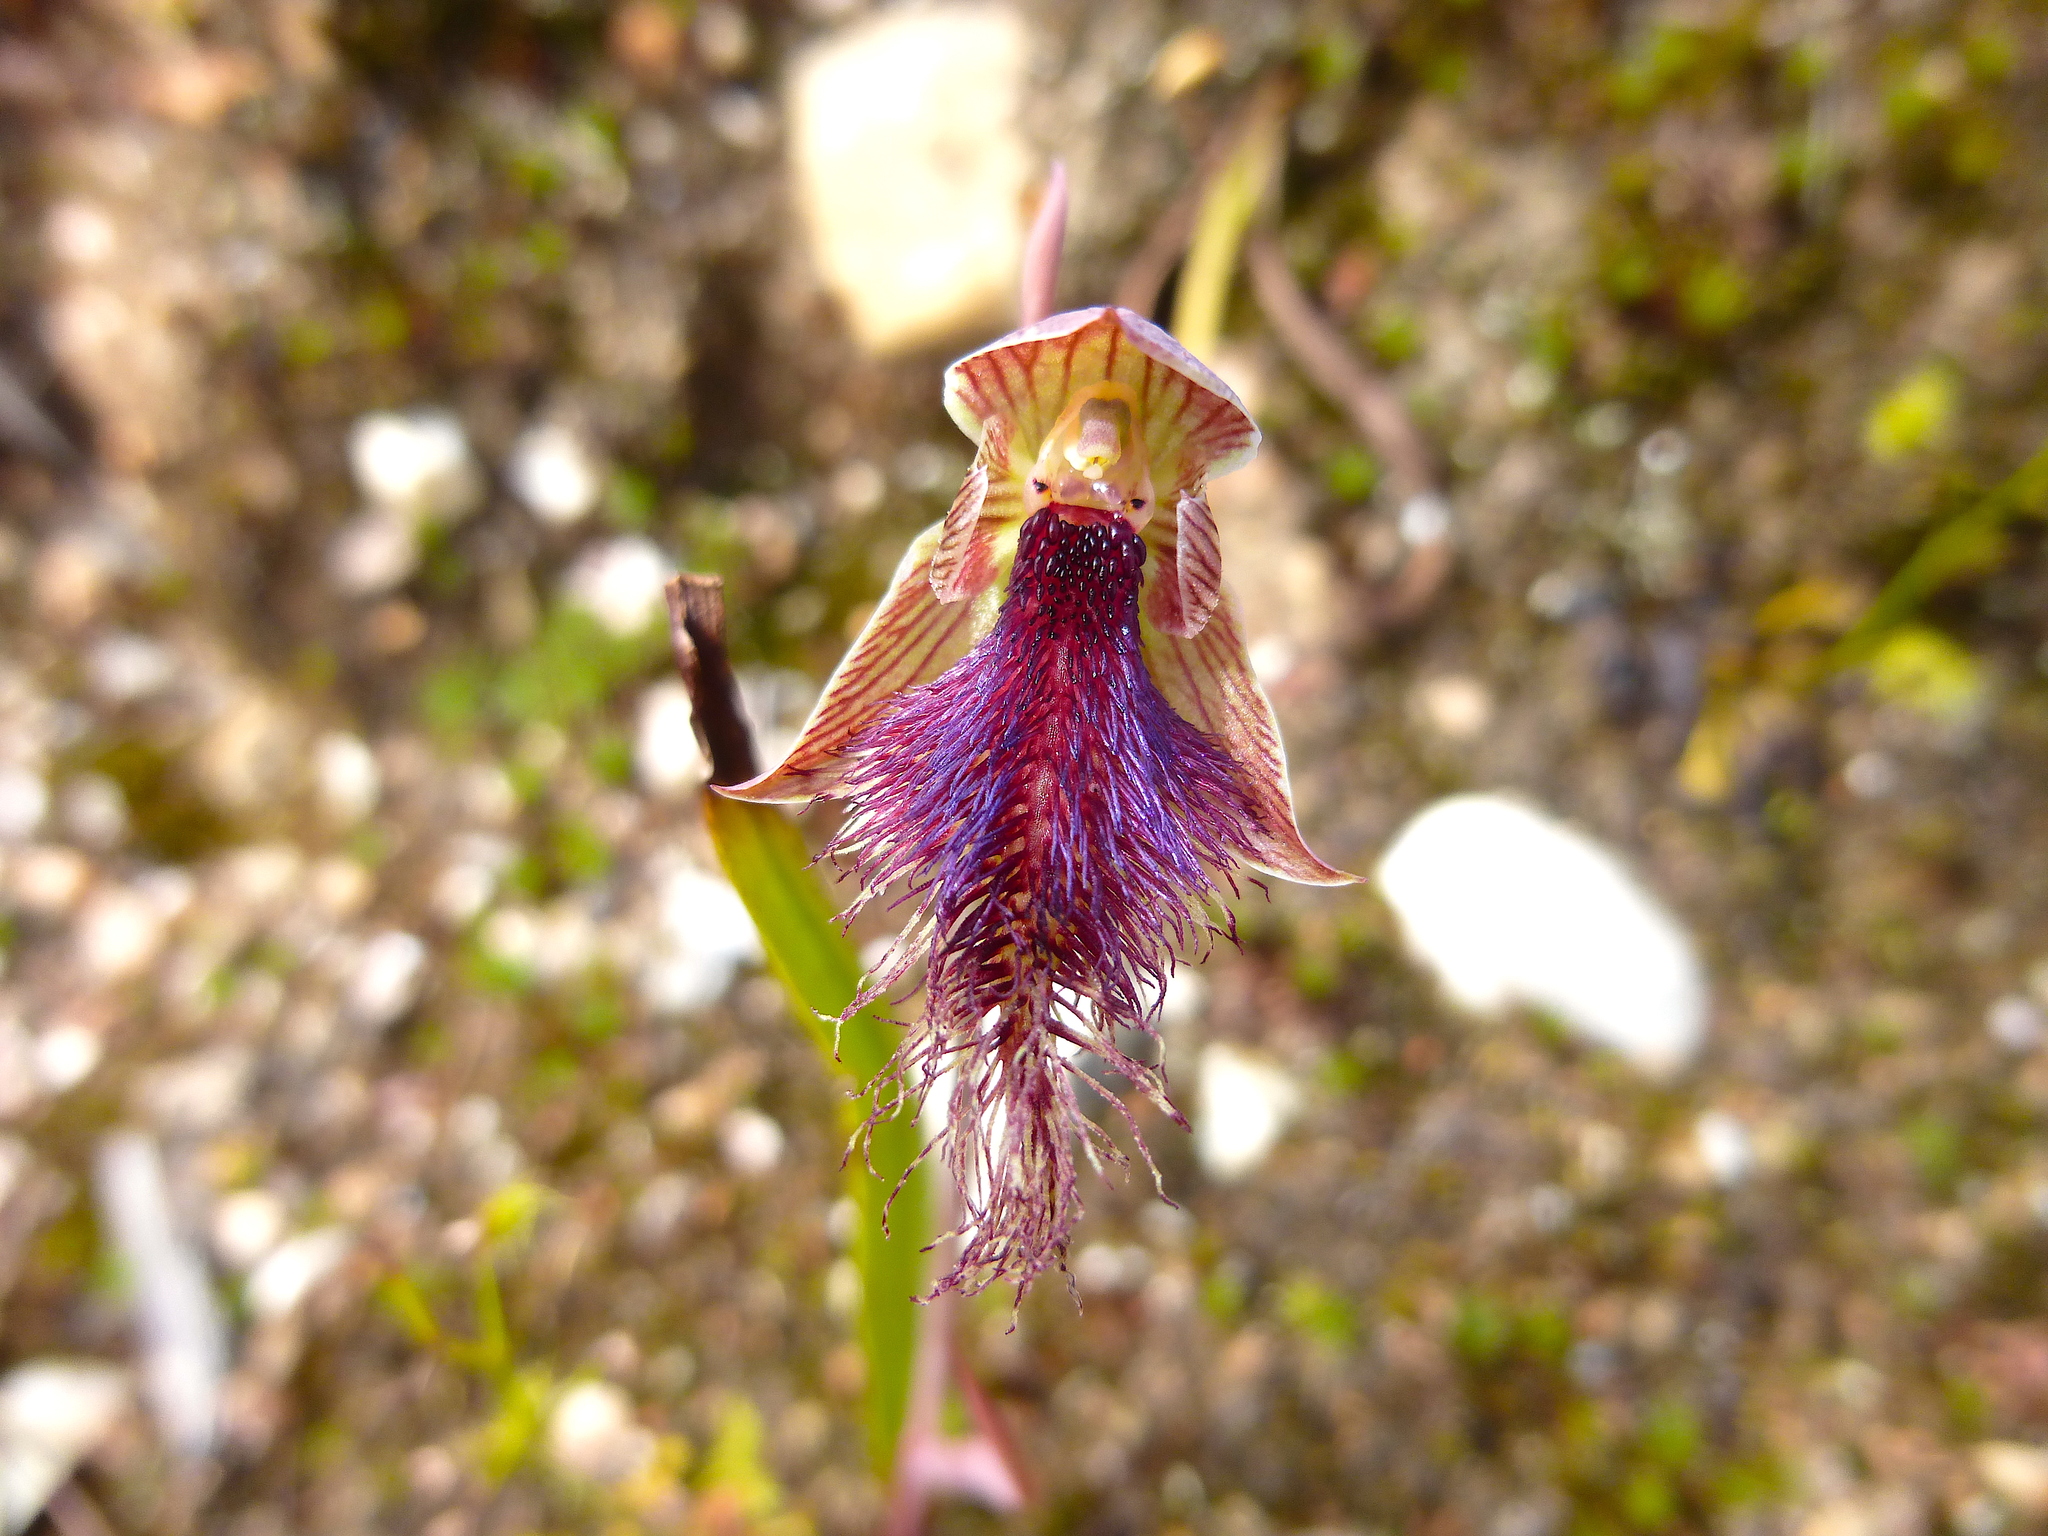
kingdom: Plantae
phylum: Tracheophyta
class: Liliopsida
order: Asparagales
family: Orchidaceae
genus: Calochilus
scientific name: Calochilus robertsonii
